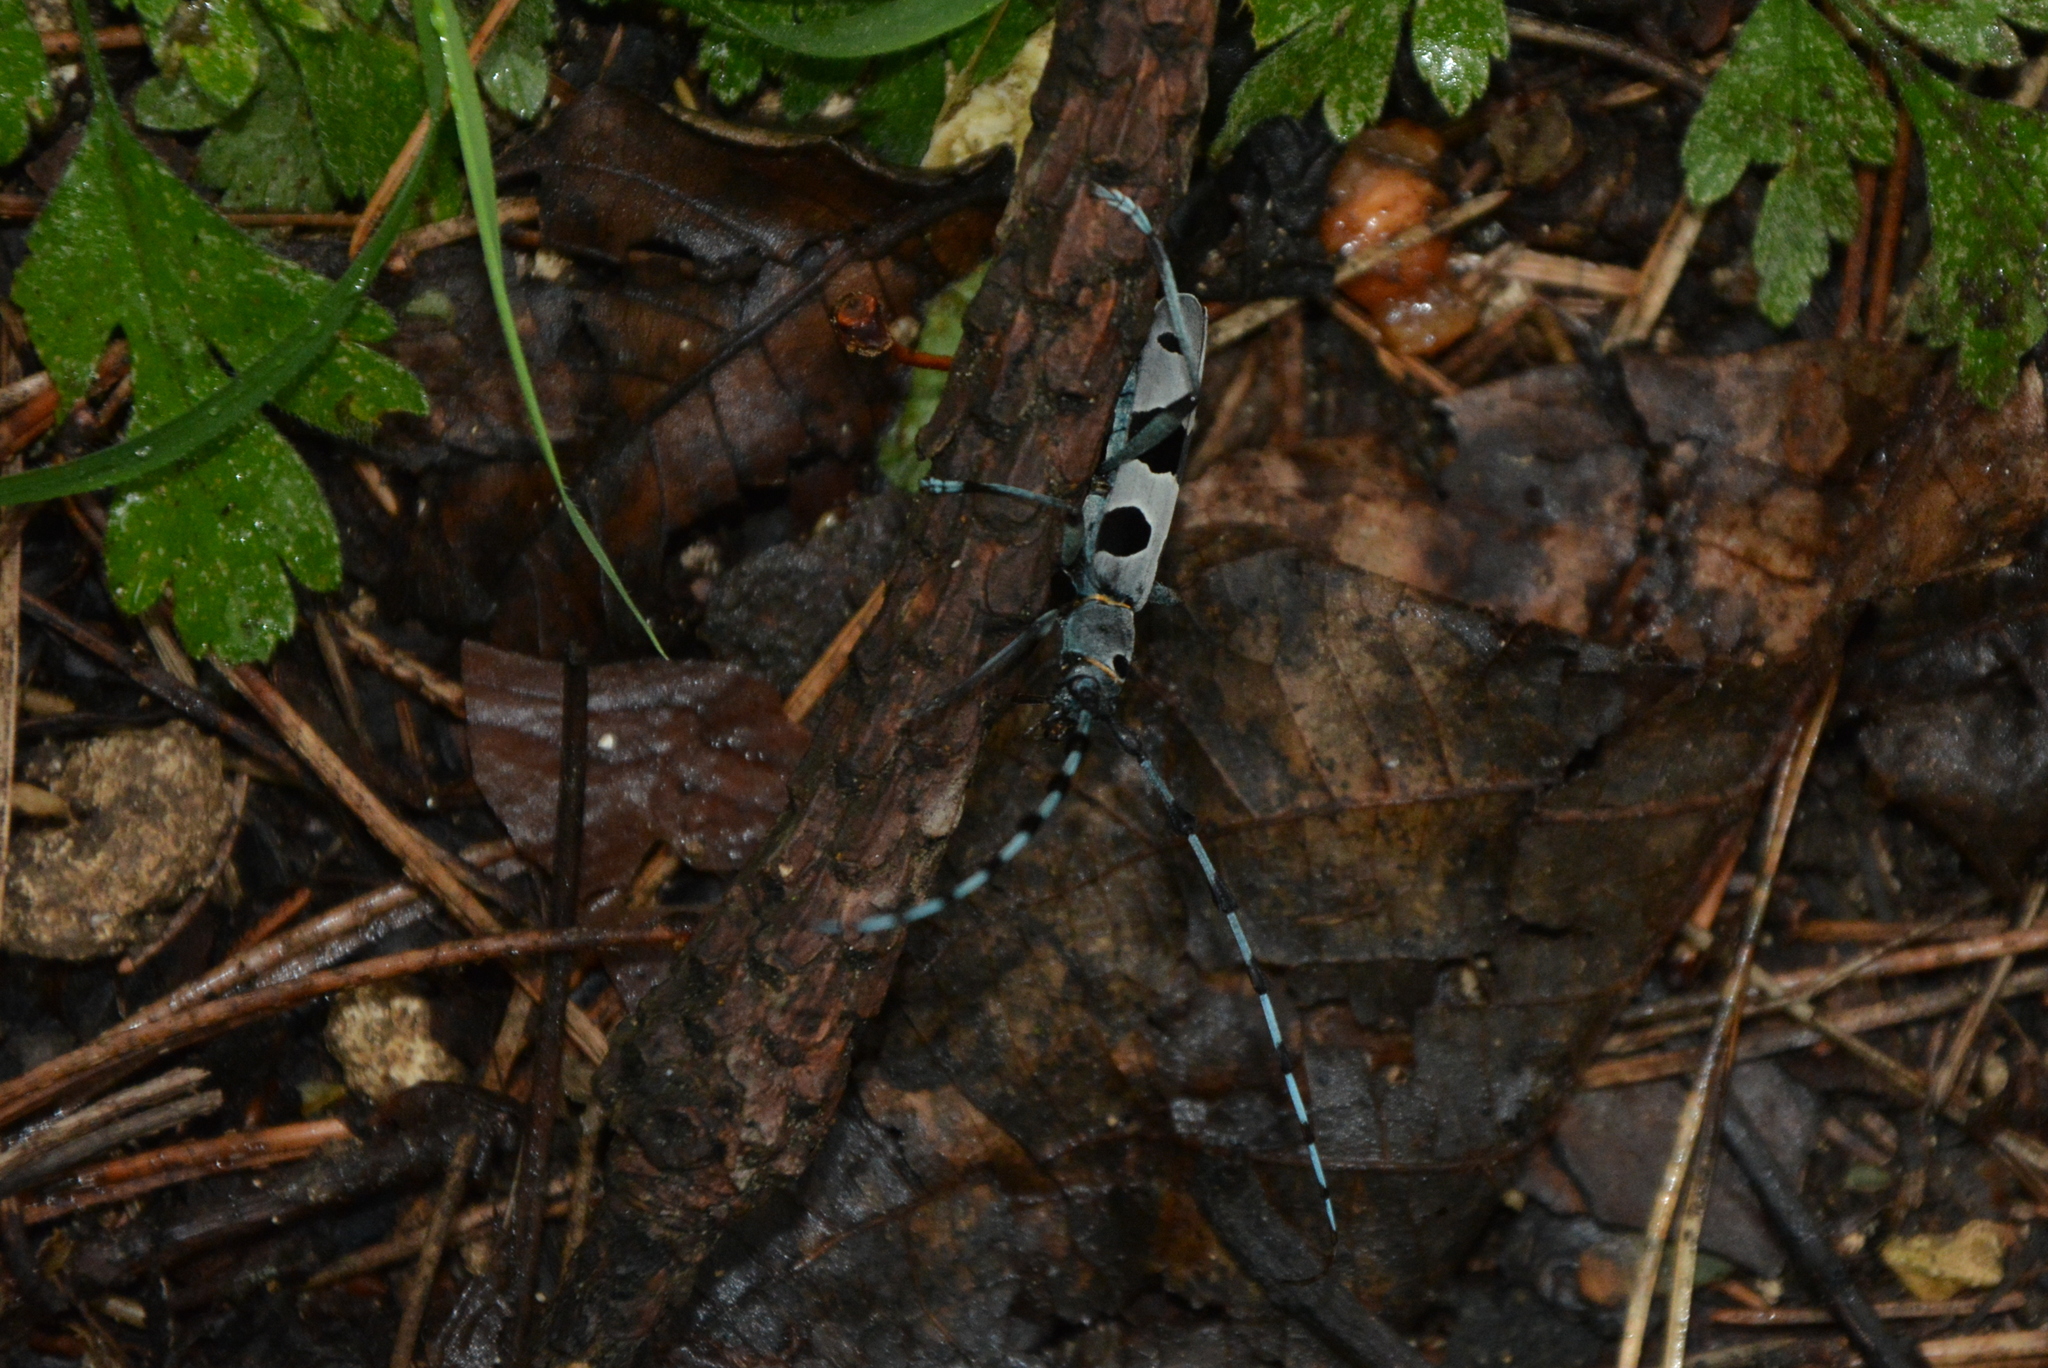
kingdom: Animalia
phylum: Arthropoda
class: Insecta
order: Coleoptera
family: Cerambycidae
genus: Rosalia
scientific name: Rosalia alpina
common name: Rosalia longicorn
